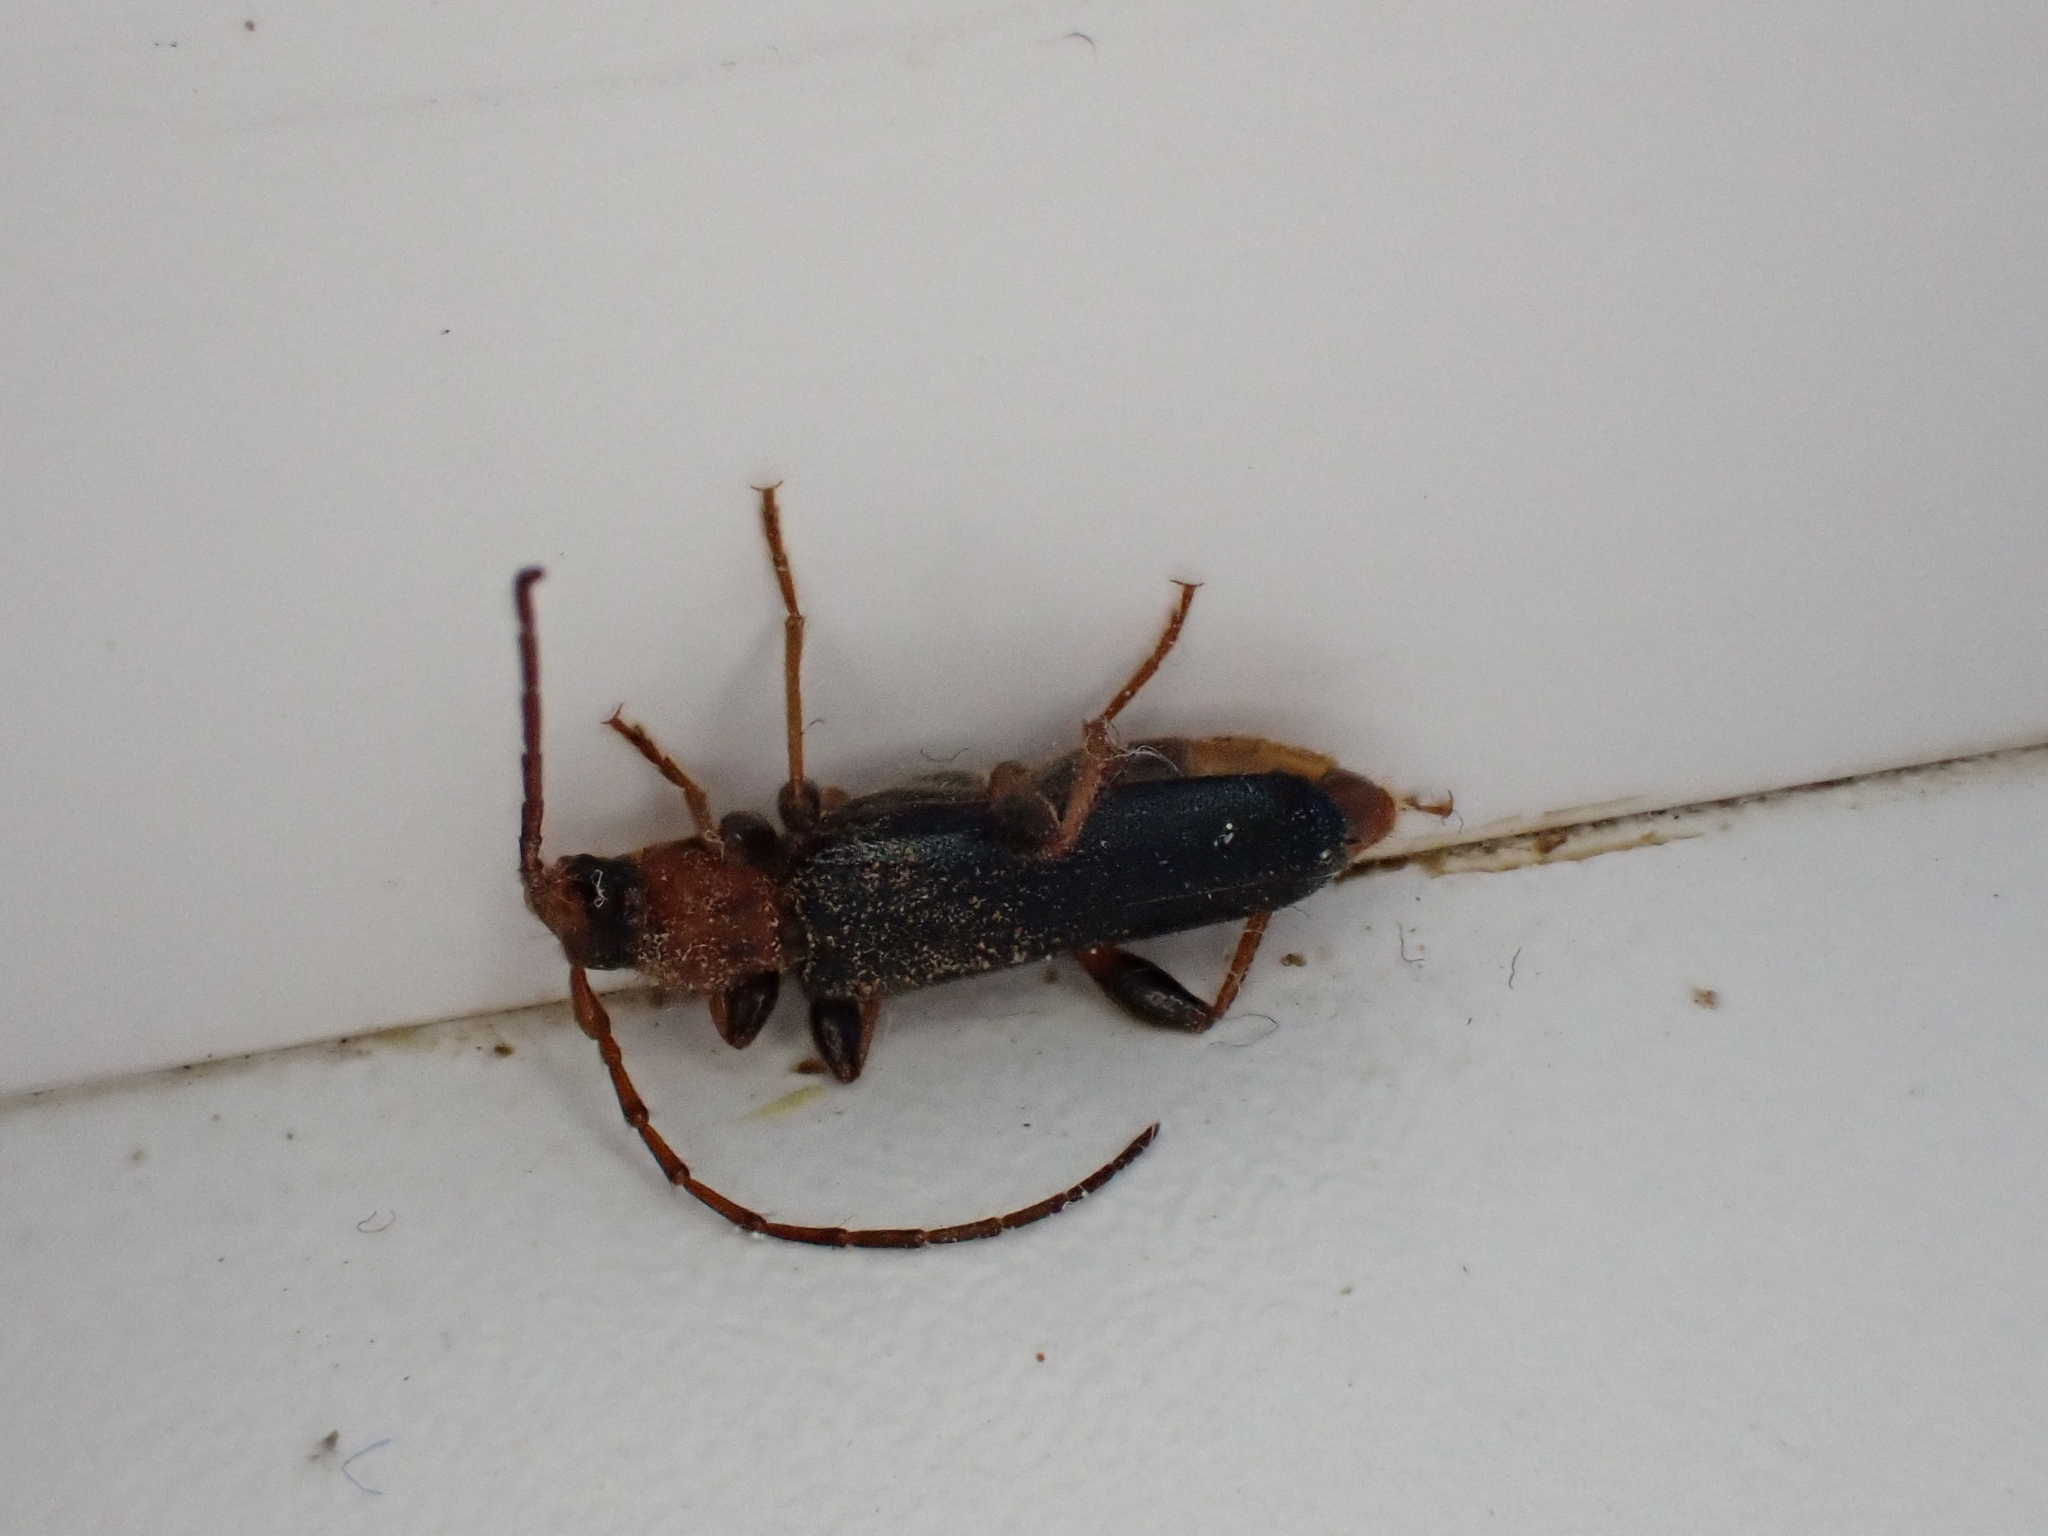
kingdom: Animalia
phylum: Arthropoda
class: Insecta
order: Coleoptera
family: Cerambycidae
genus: Phymatodes
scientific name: Phymatodes testaceus
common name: Long-horned beetle
